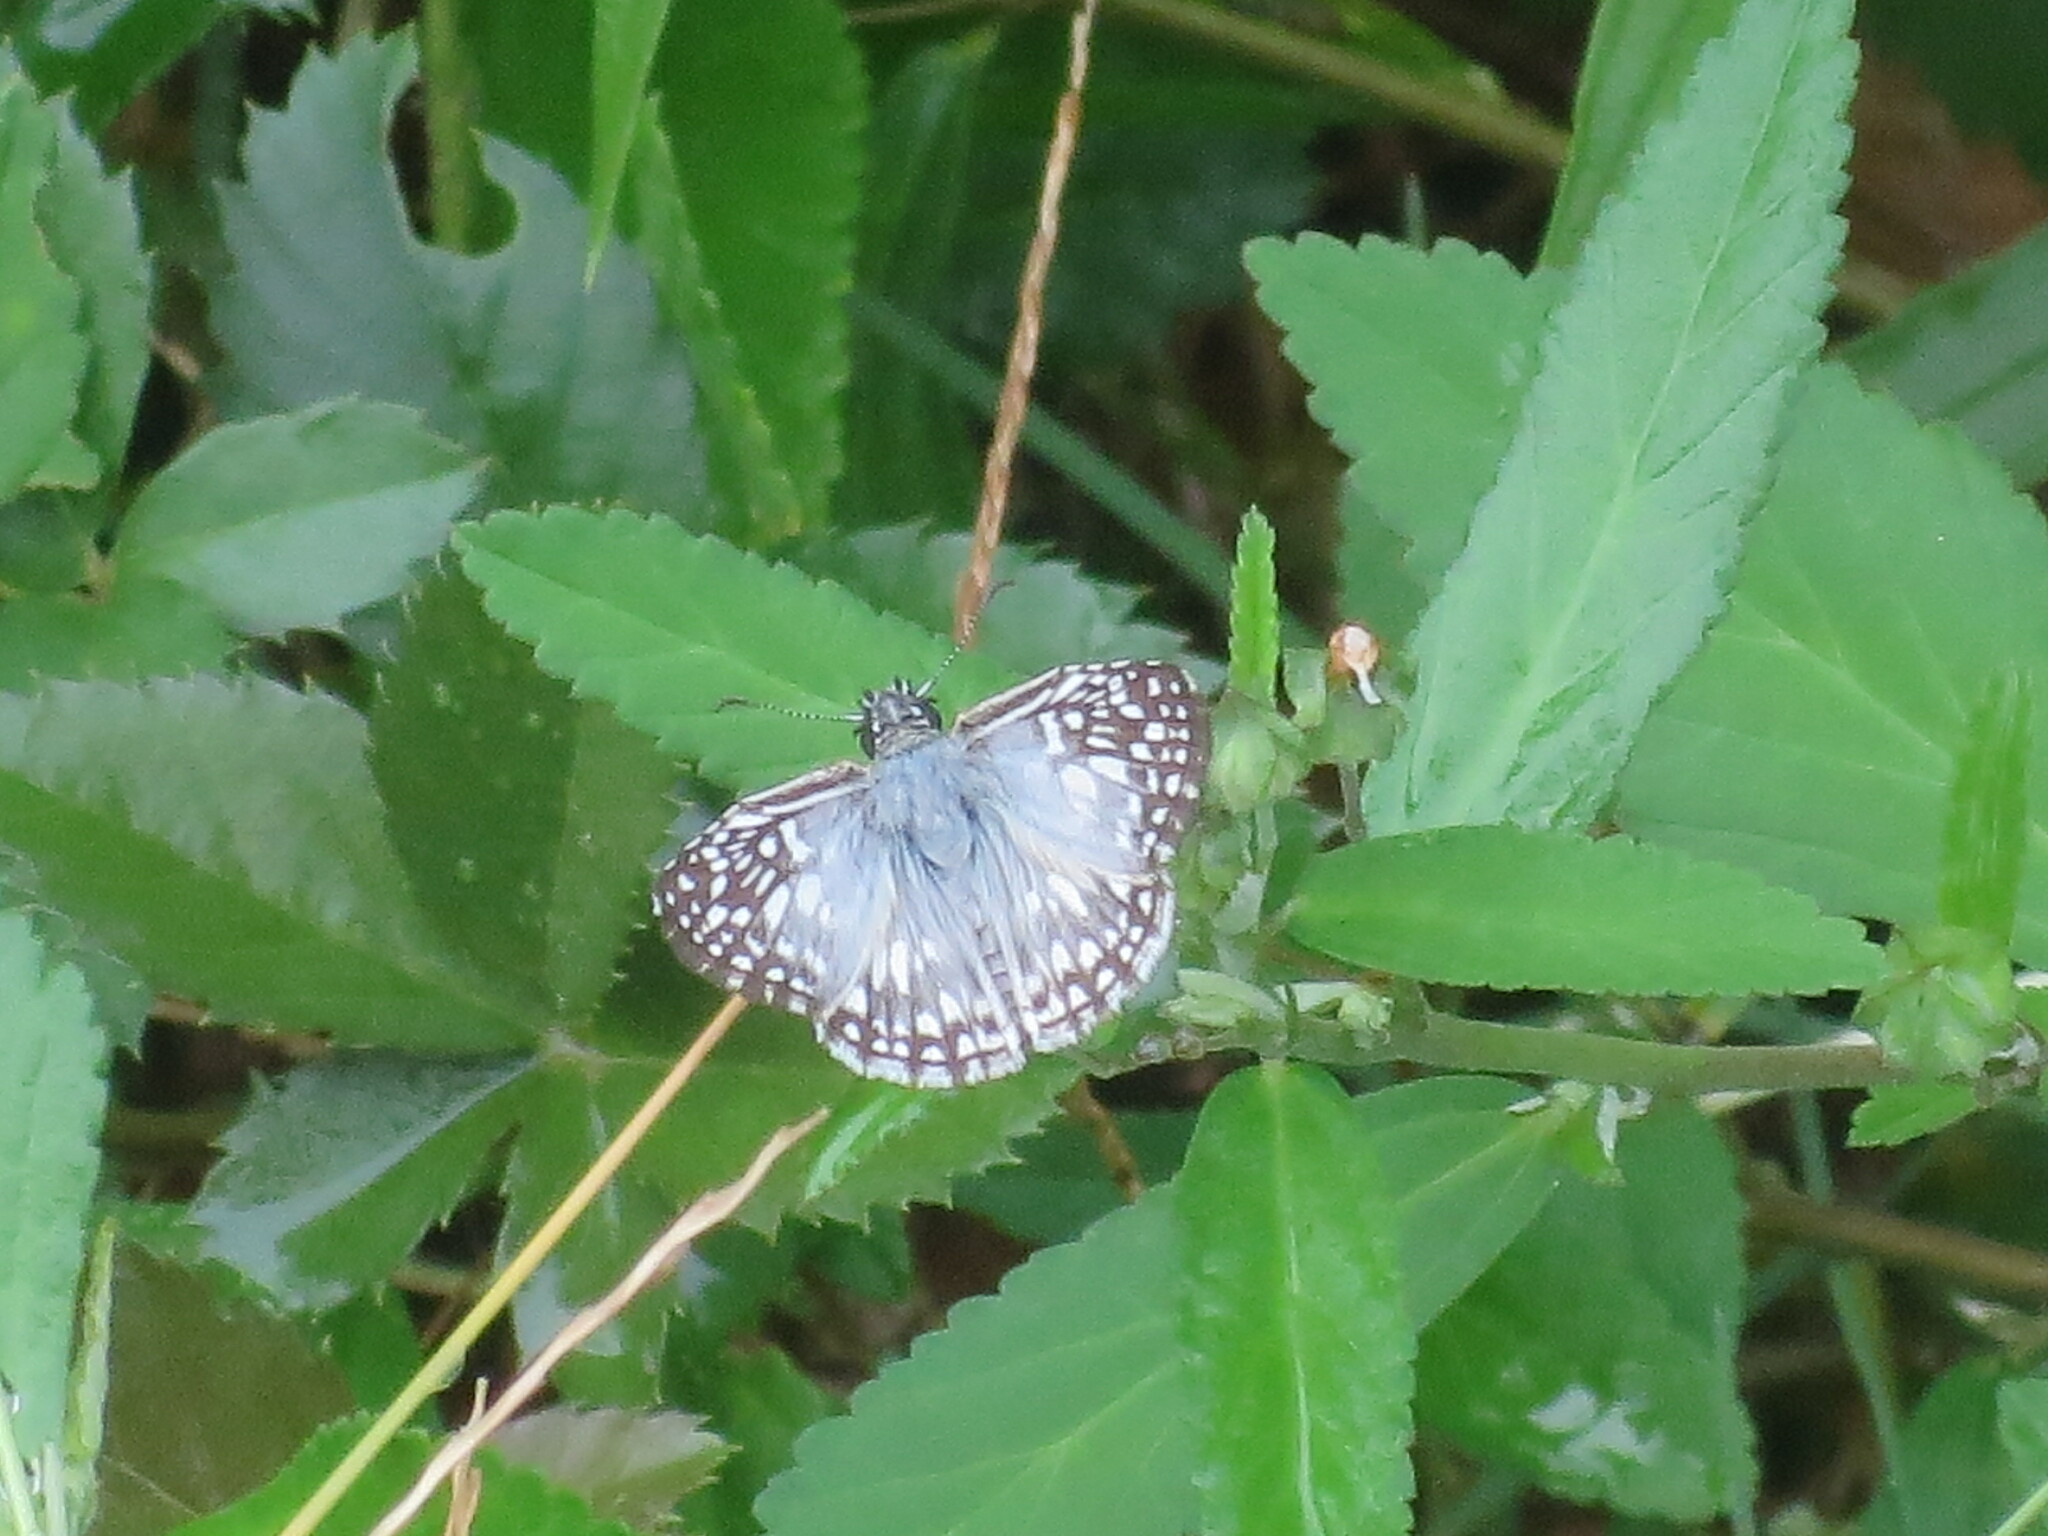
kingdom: Animalia
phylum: Arthropoda
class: Insecta
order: Lepidoptera
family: Hesperiidae
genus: Pyrgus
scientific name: Pyrgus oileus
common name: Tropical checkered-skipper
